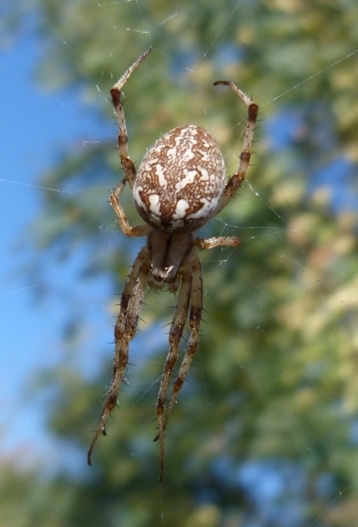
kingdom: Animalia
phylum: Arthropoda
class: Arachnida
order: Araneae
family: Araneidae
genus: Neoscona
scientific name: Neoscona adianta
